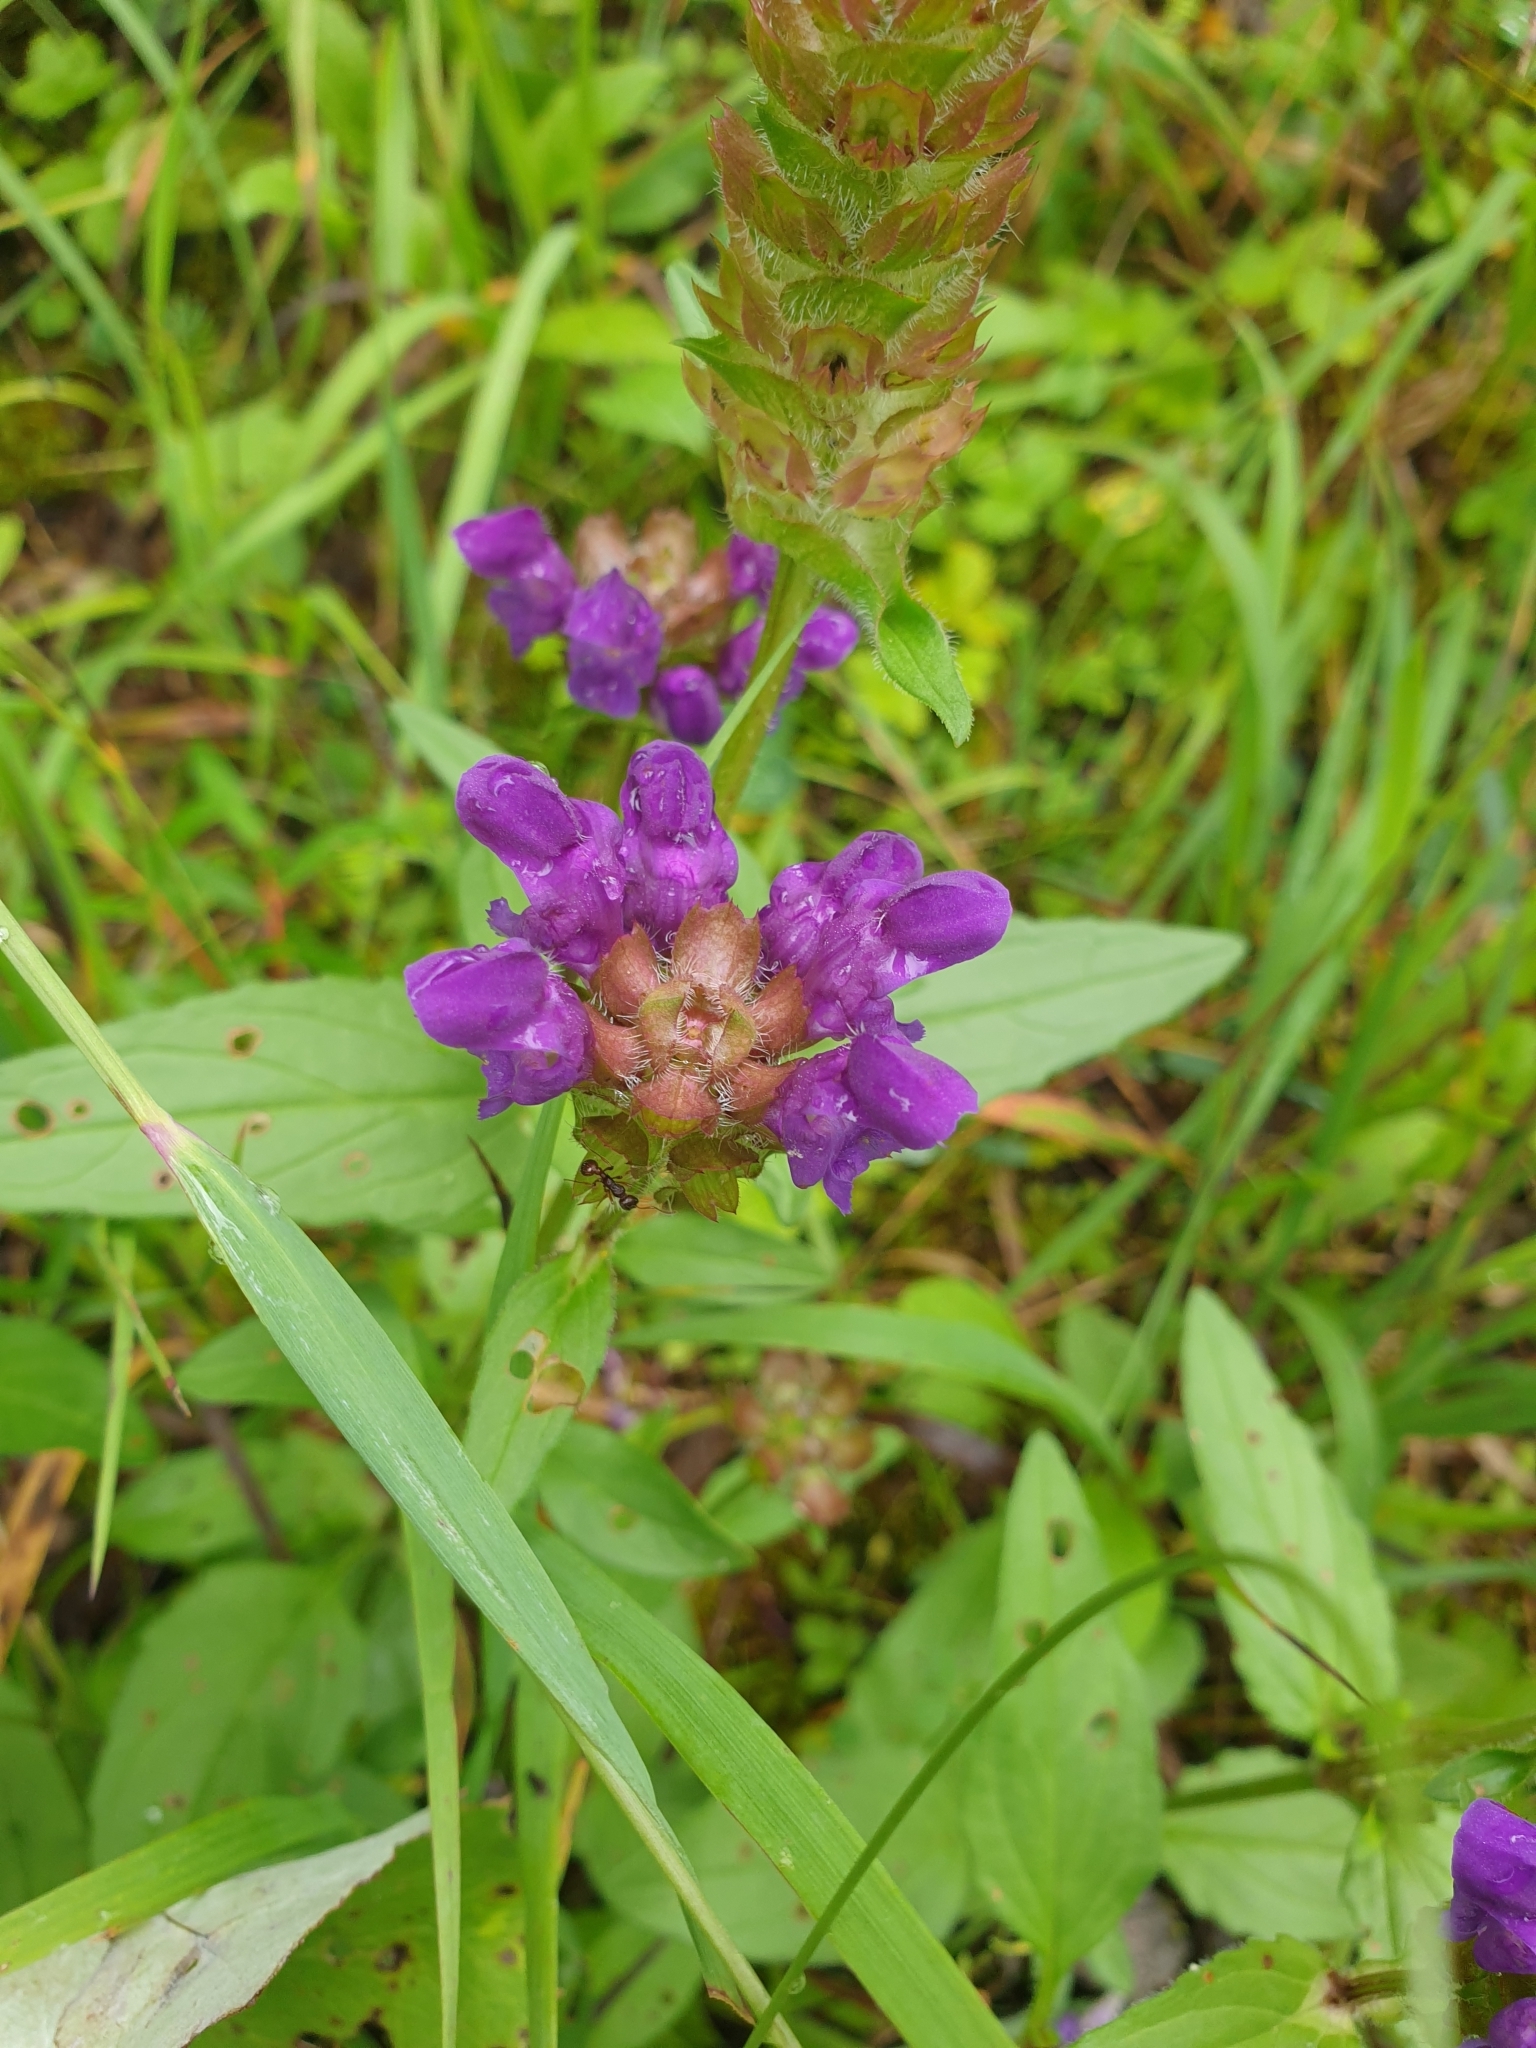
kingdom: Plantae
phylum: Tracheophyta
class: Magnoliopsida
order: Lamiales
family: Lamiaceae
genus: Prunella
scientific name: Prunella grandiflora
